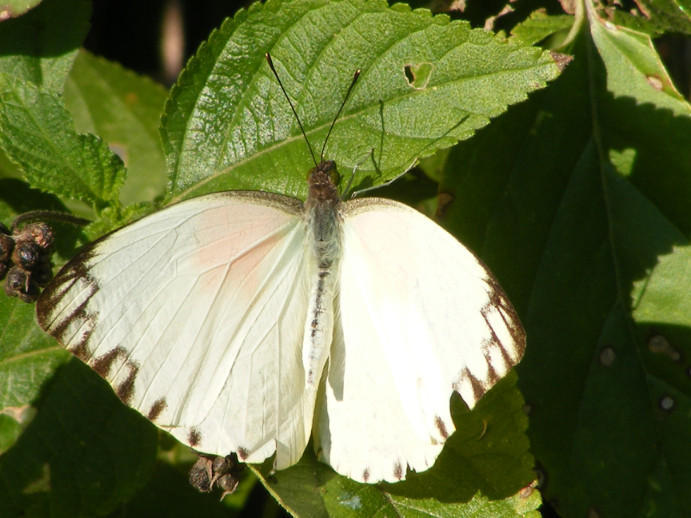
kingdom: Animalia
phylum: Arthropoda
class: Insecta
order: Lepidoptera
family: Pieridae
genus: Nepheronia
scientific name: Nepheronia argia
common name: Large vagrant
